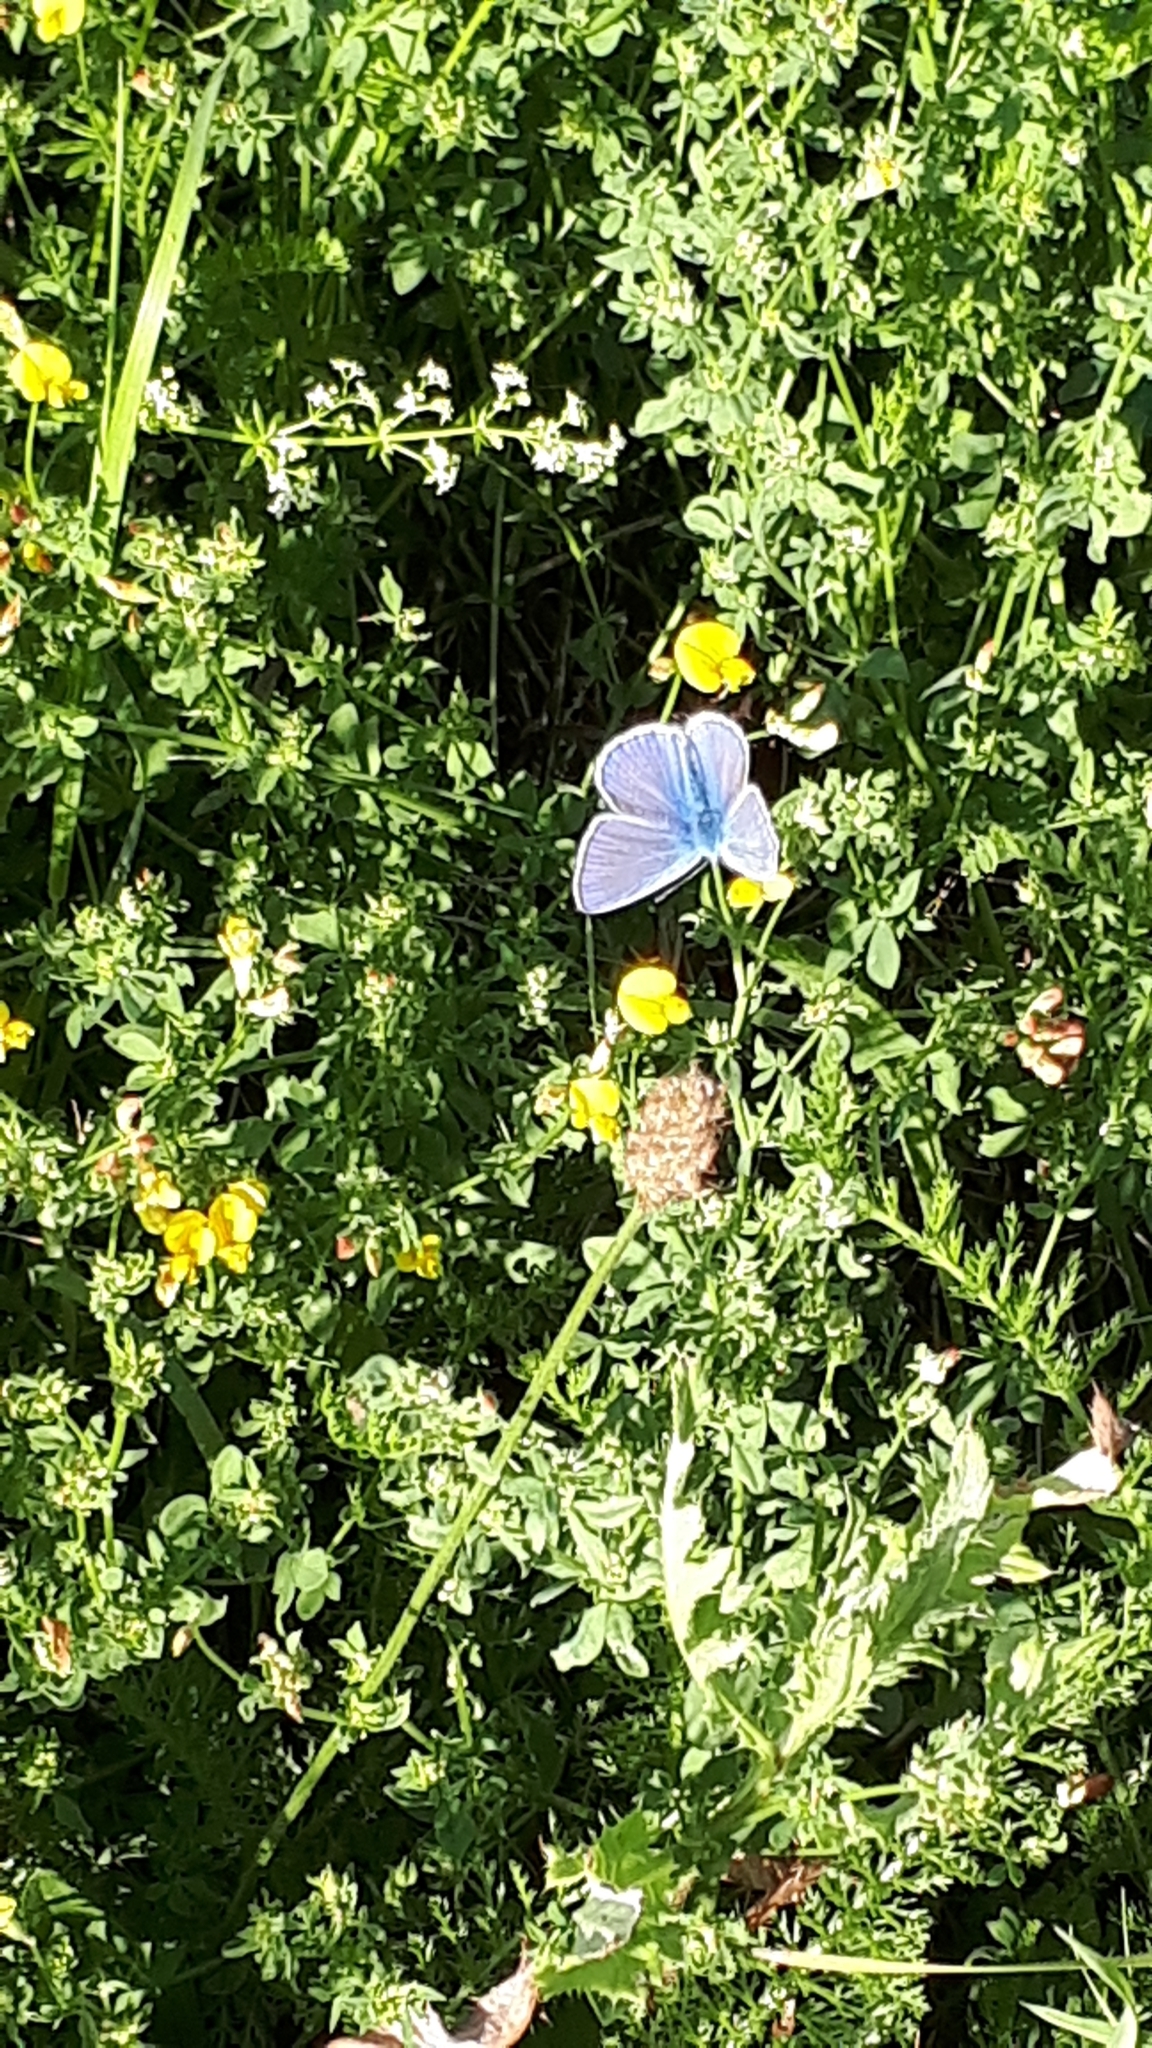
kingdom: Animalia
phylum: Arthropoda
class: Insecta
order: Lepidoptera
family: Lycaenidae
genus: Polyommatus
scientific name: Polyommatus icarus
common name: Common blue
